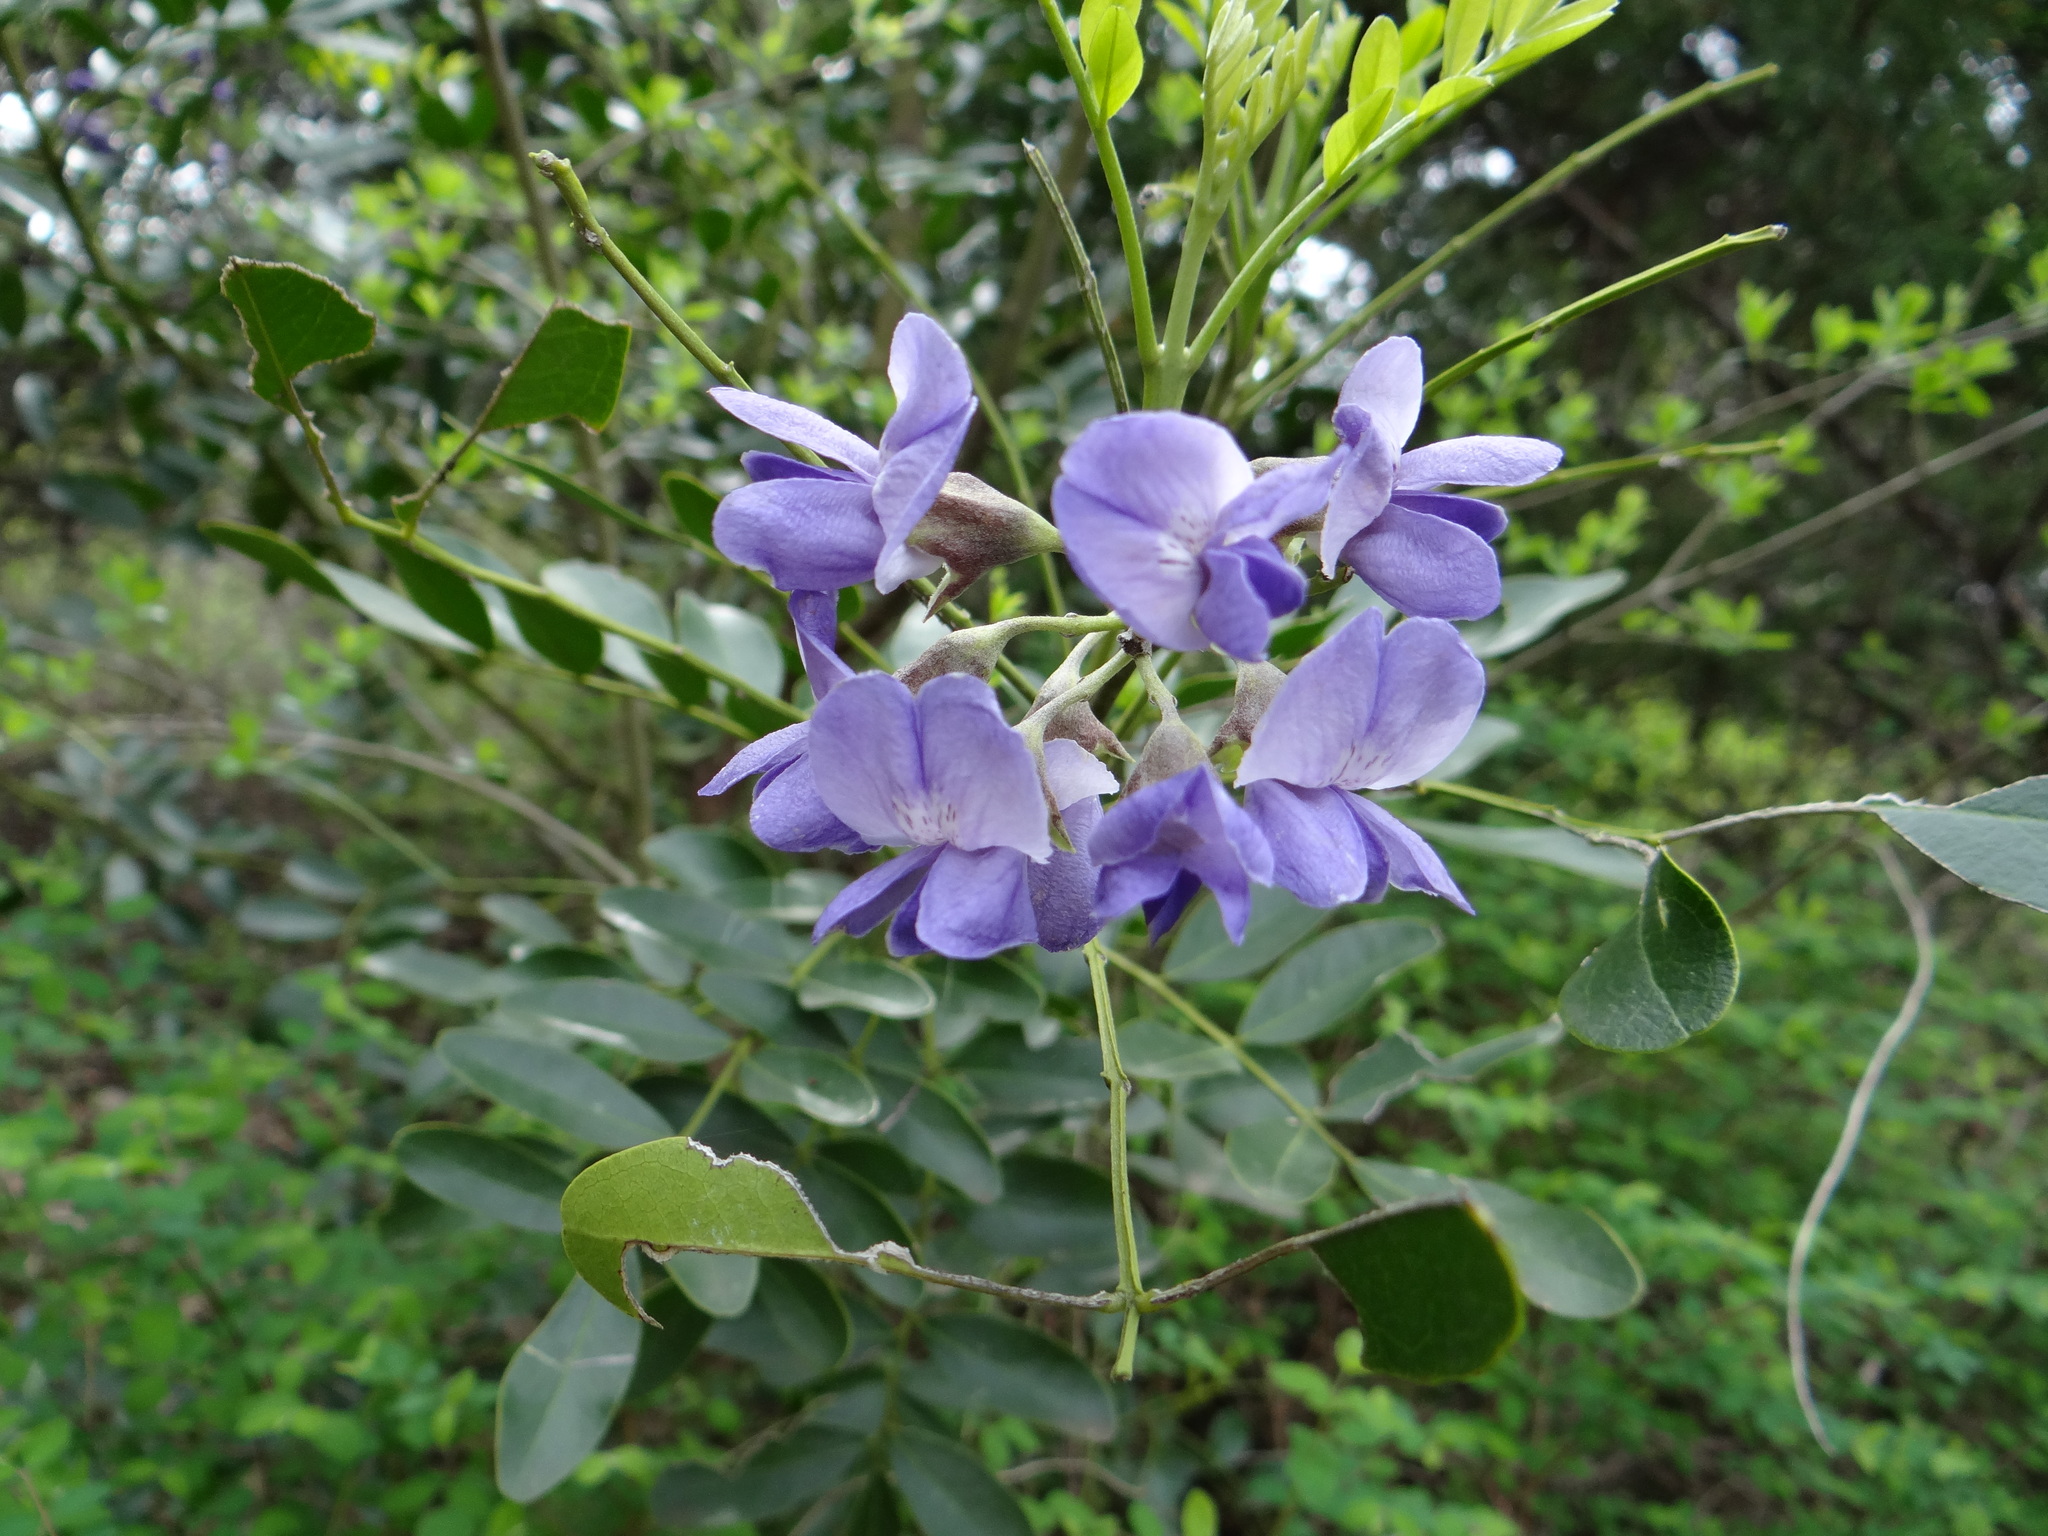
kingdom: Plantae
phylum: Tracheophyta
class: Magnoliopsida
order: Fabales
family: Fabaceae
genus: Dermatophyllum
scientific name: Dermatophyllum secundiflorum
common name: Texas-mountain-laurel
